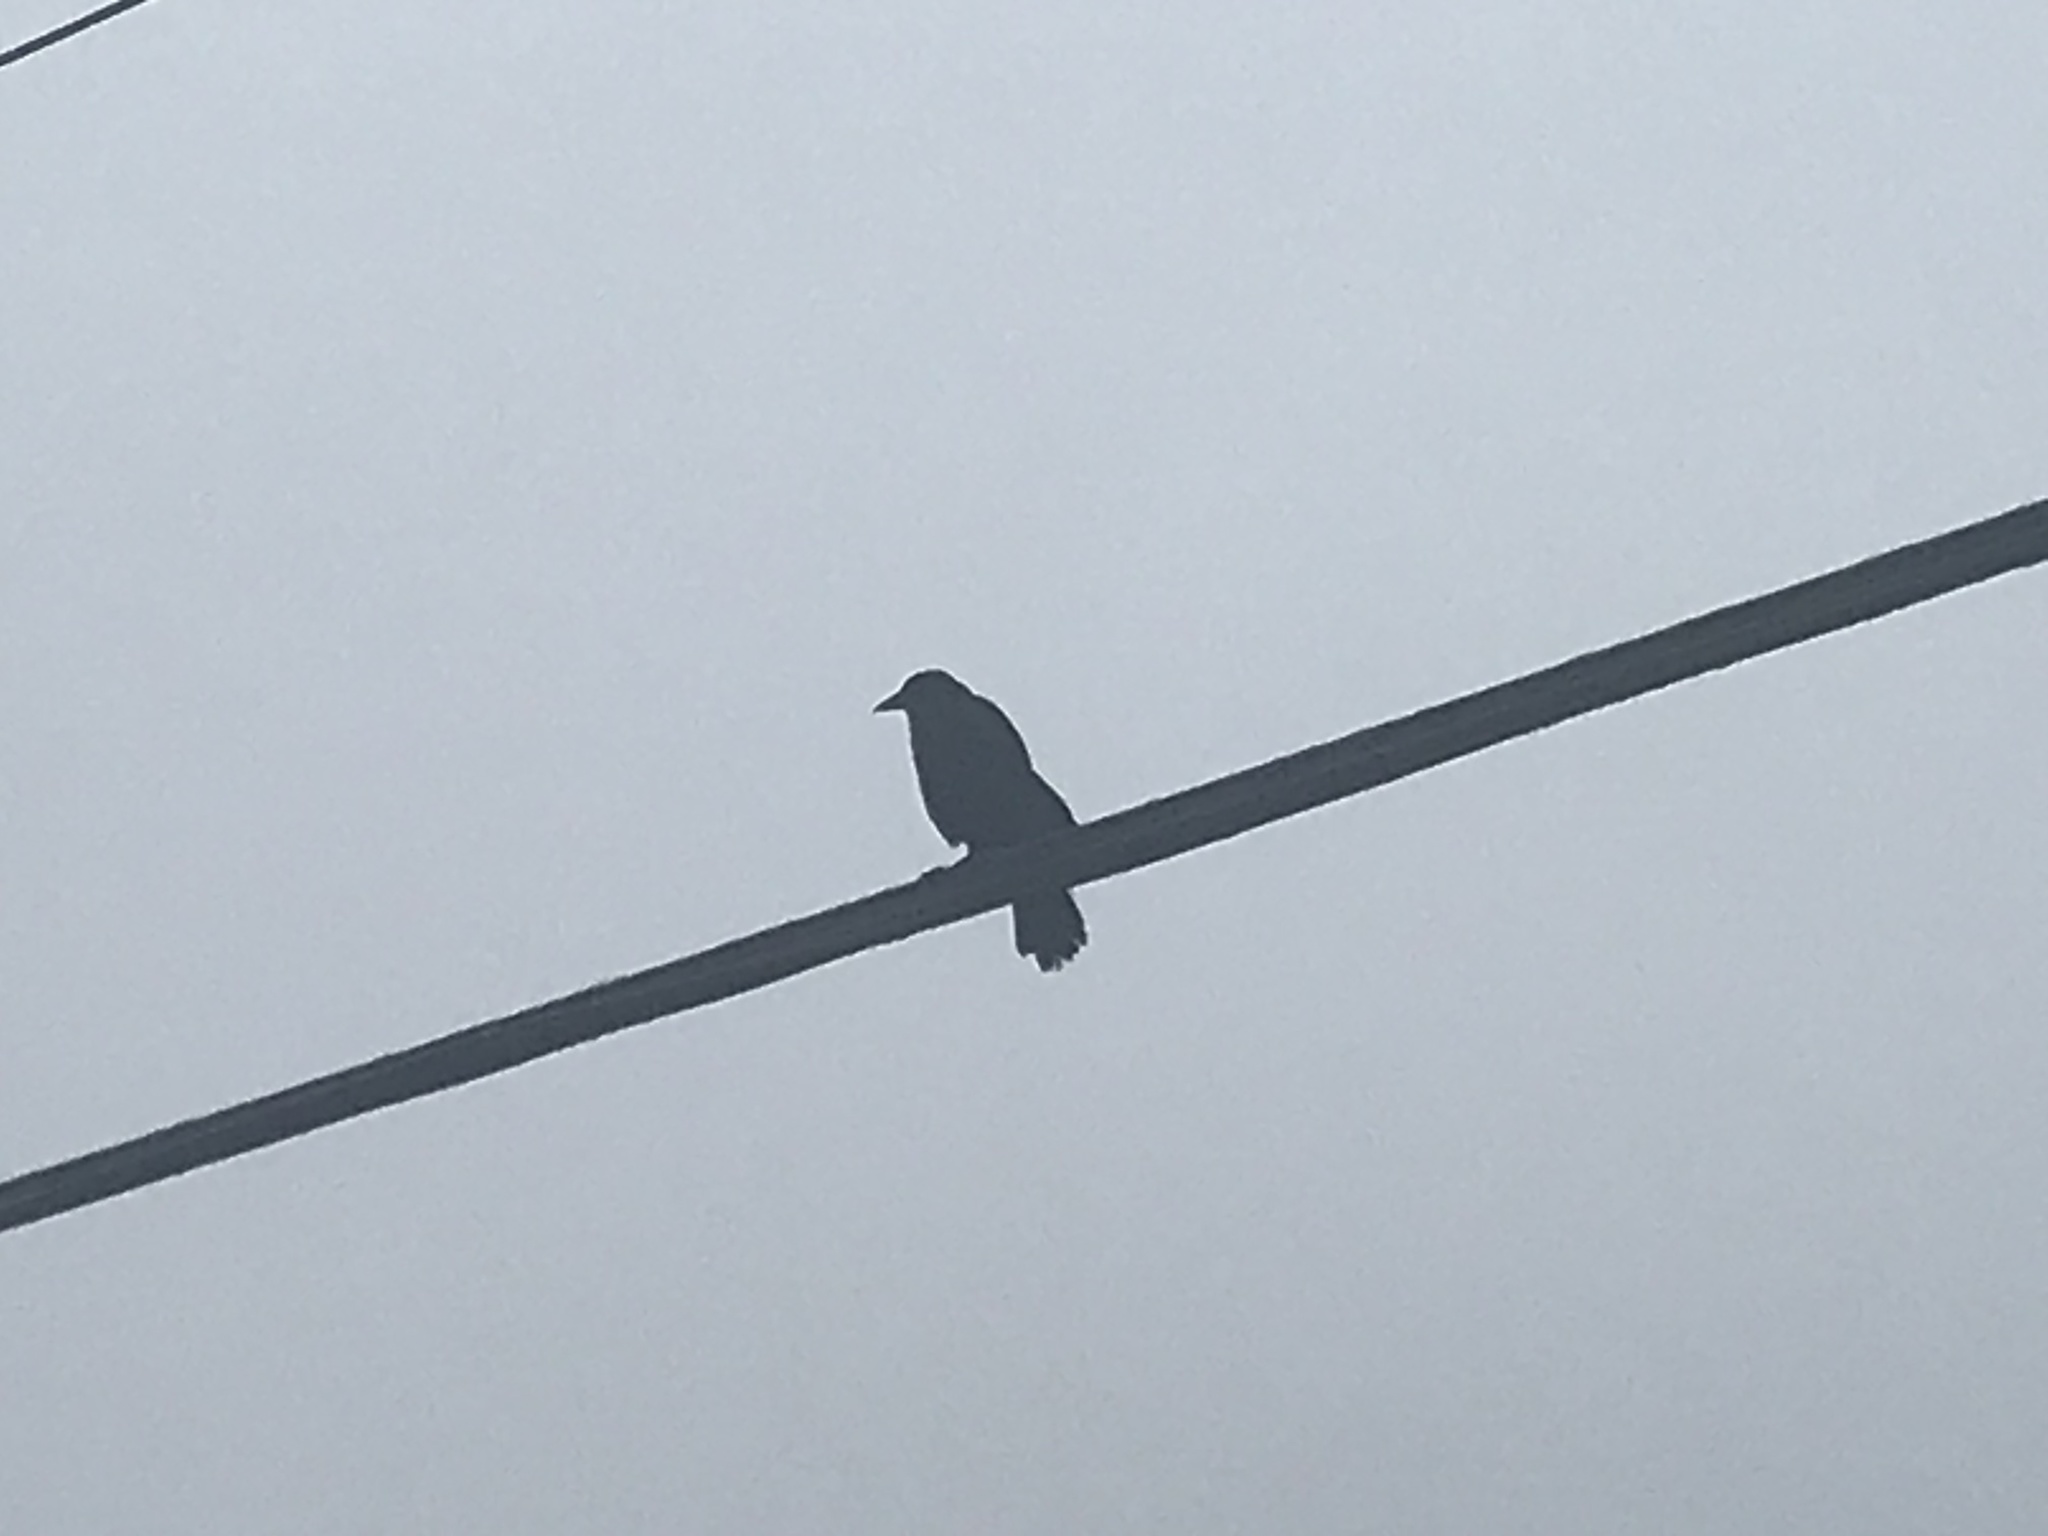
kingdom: Animalia
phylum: Chordata
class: Aves
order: Passeriformes
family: Corvidae
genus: Corvus
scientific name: Corvus brachyrhynchos
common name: American crow
